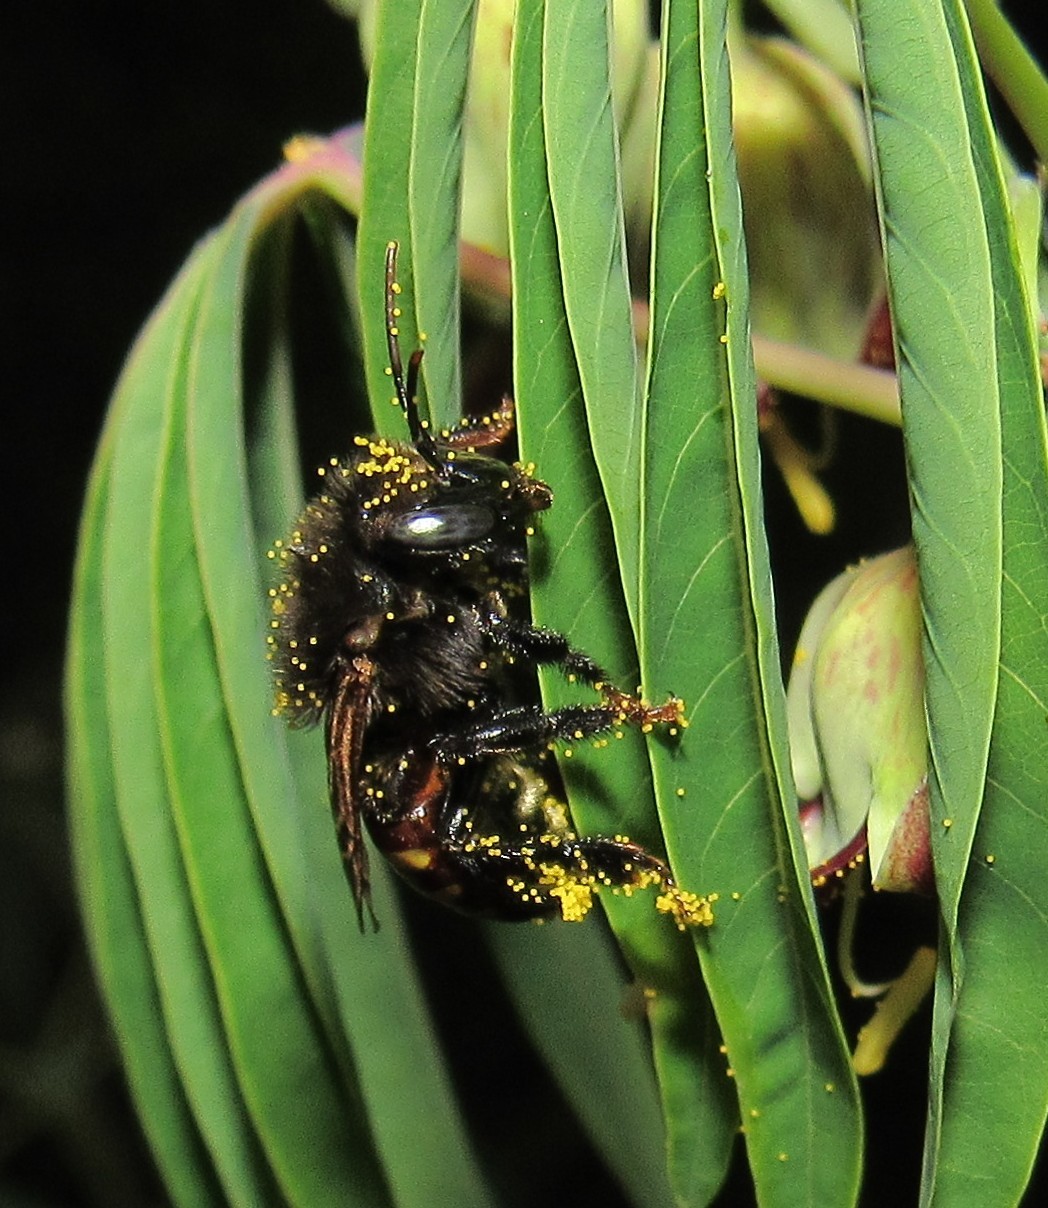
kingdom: Animalia
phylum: Arthropoda
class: Insecta
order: Hymenoptera
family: Apidae
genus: Melipona
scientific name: Melipona quadrifasciata
